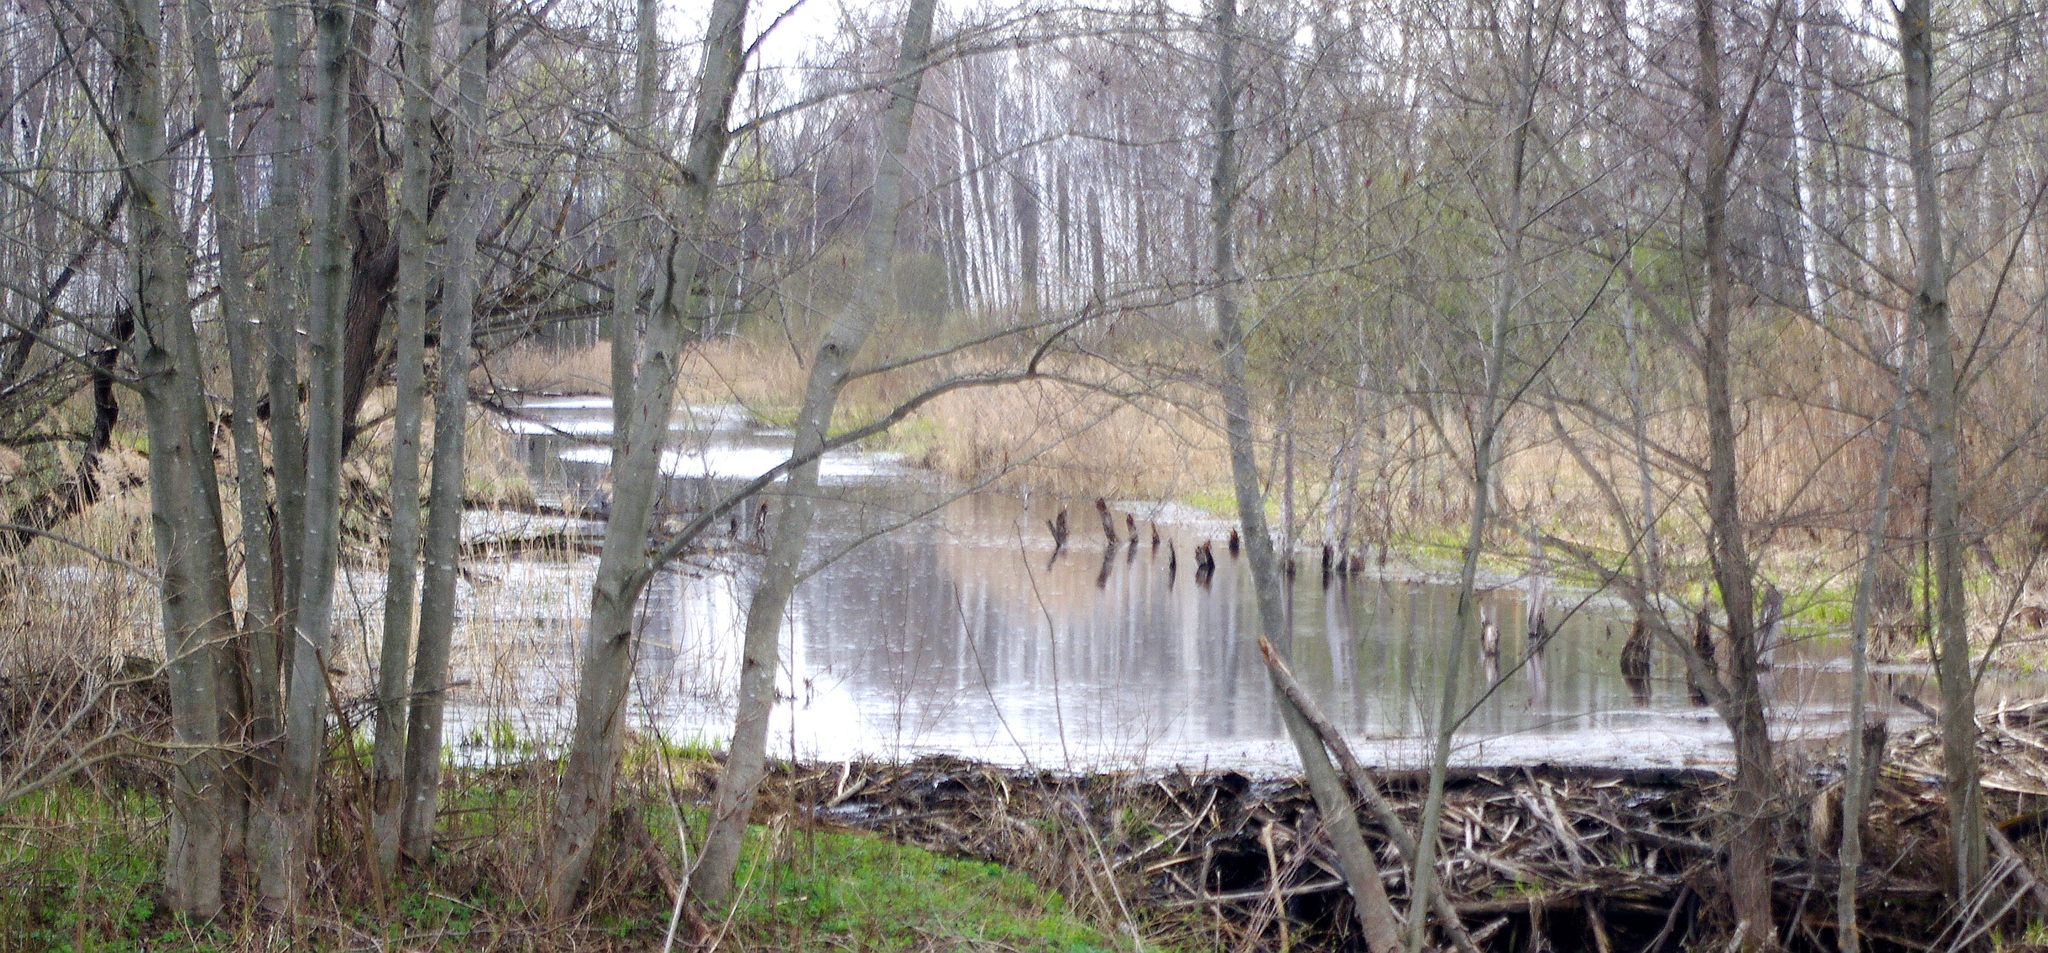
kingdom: Plantae
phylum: Tracheophyta
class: Magnoliopsida
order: Fagales
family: Betulaceae
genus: Alnus
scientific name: Alnus incana
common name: Grey alder
